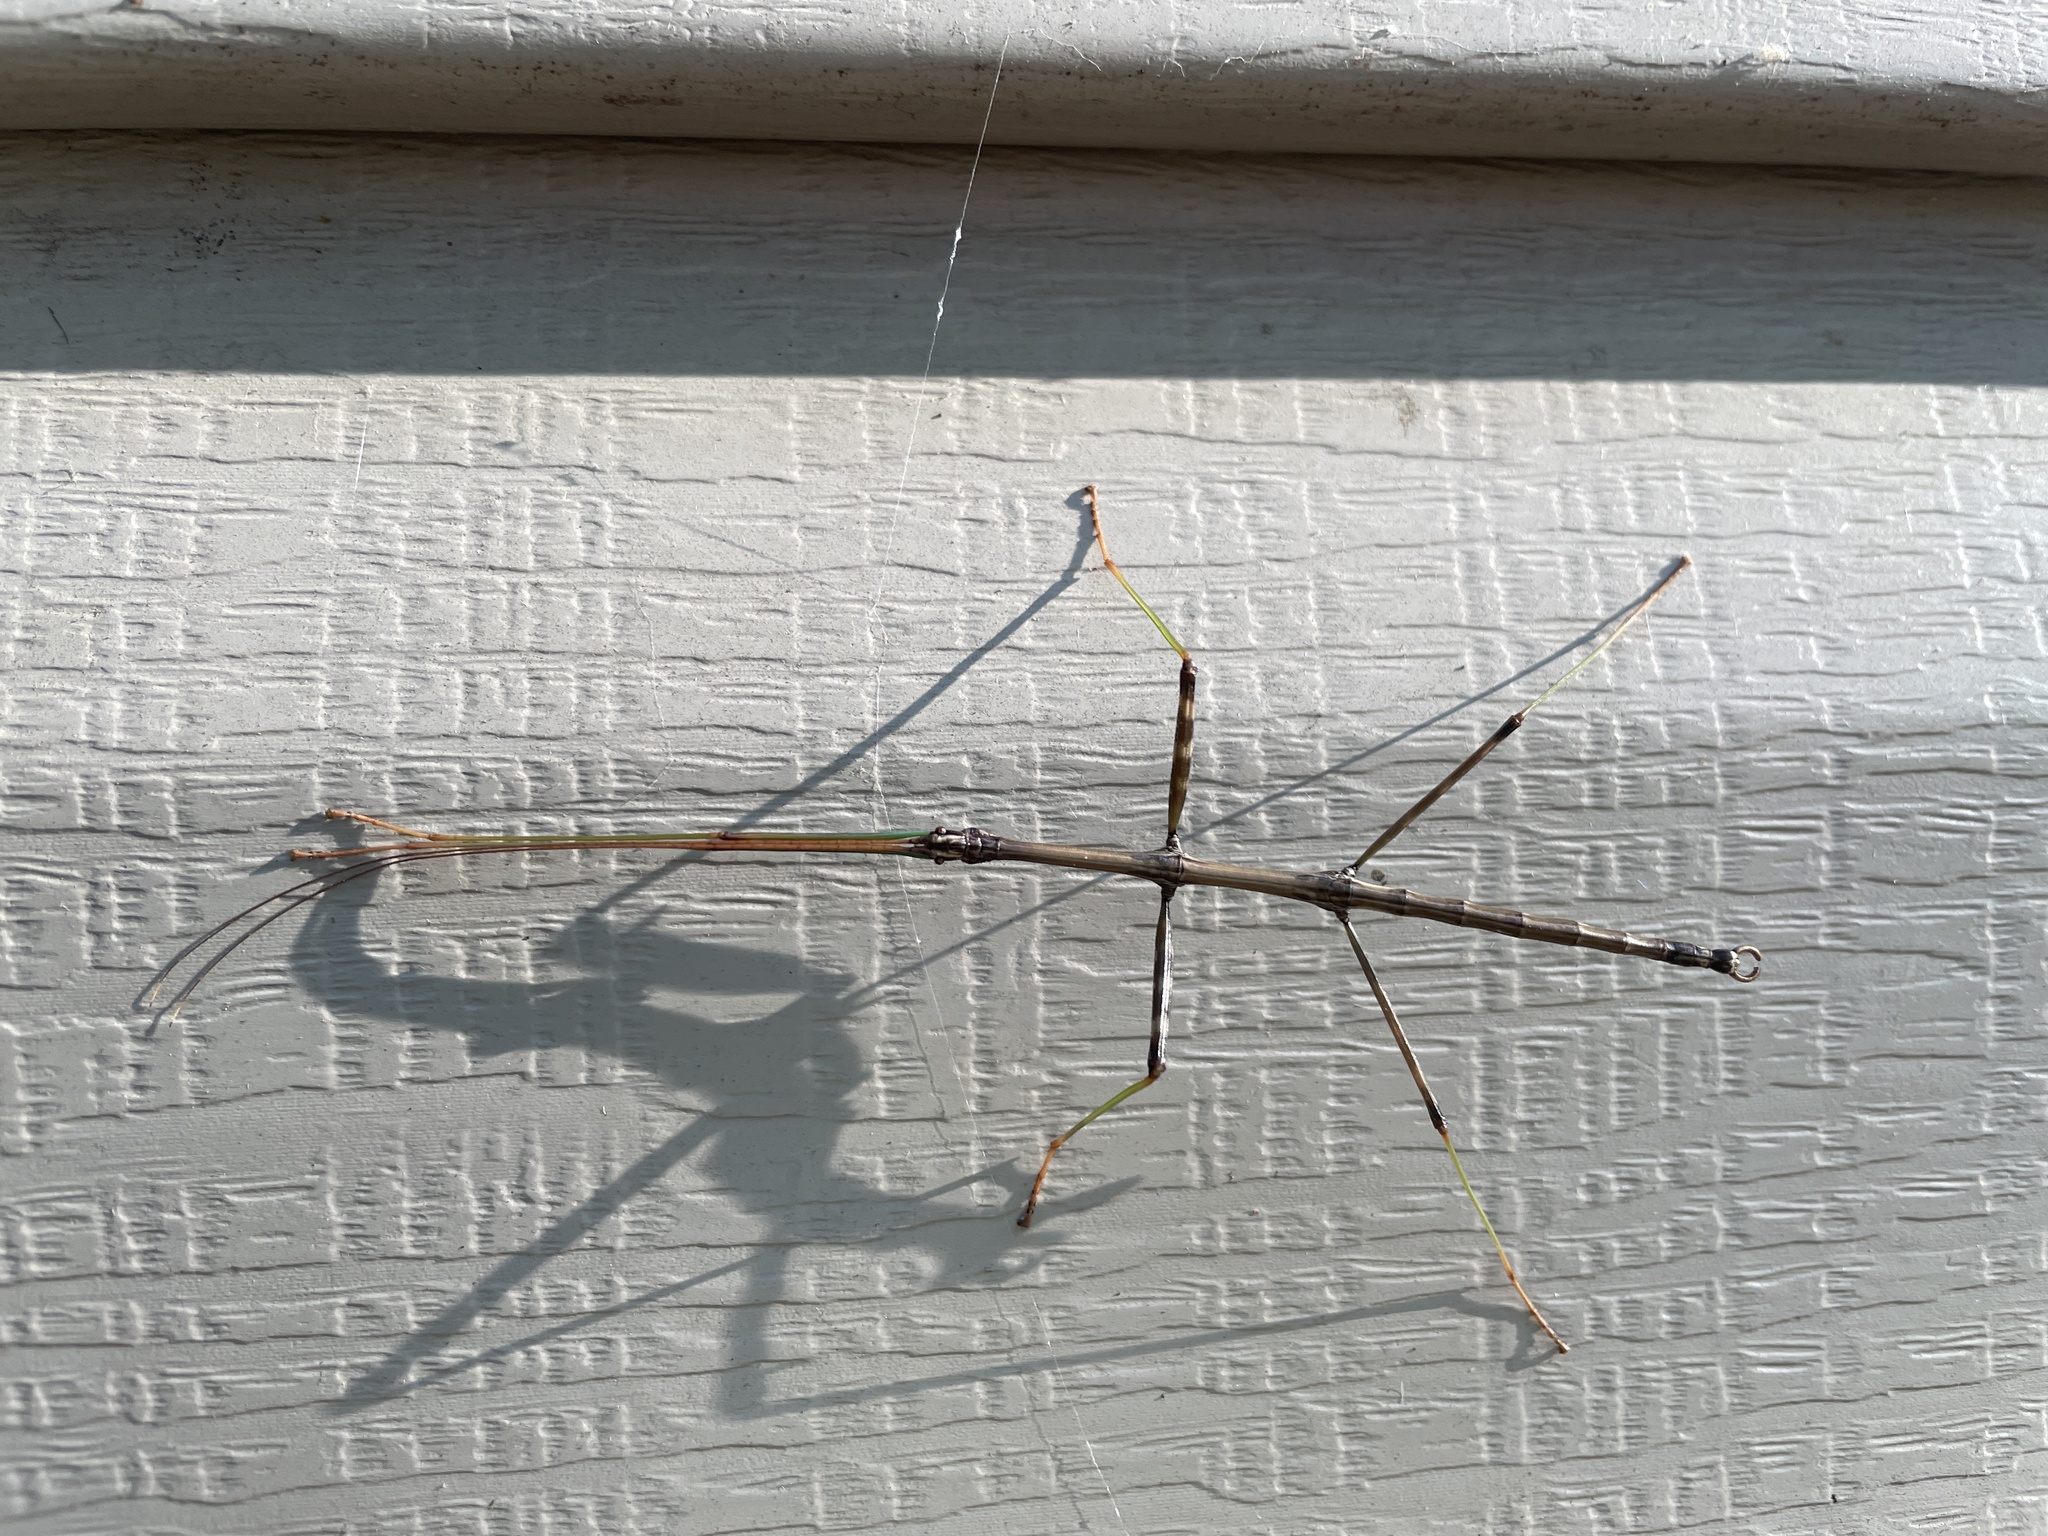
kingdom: Animalia
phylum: Arthropoda
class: Insecta
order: Phasmida
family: Diapheromeridae
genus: Diapheromera
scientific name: Diapheromera femorata
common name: Common american walkingstick
